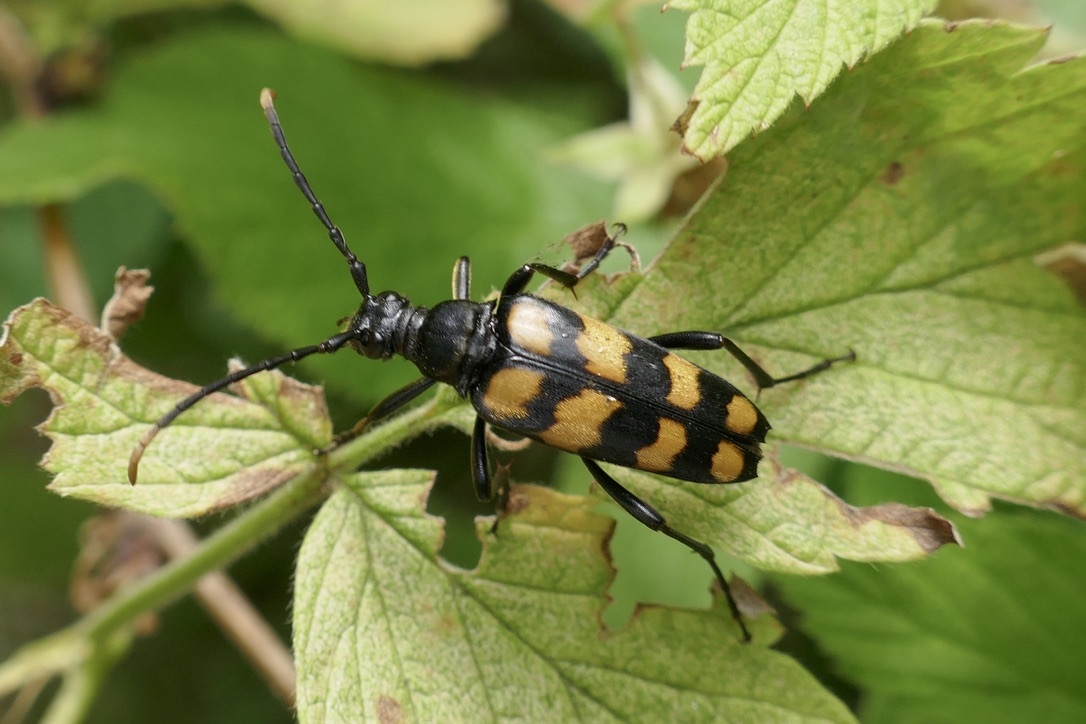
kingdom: Animalia
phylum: Arthropoda
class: Insecta
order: Coleoptera
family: Cerambycidae
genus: Leptura
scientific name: Leptura quadrifasciata
